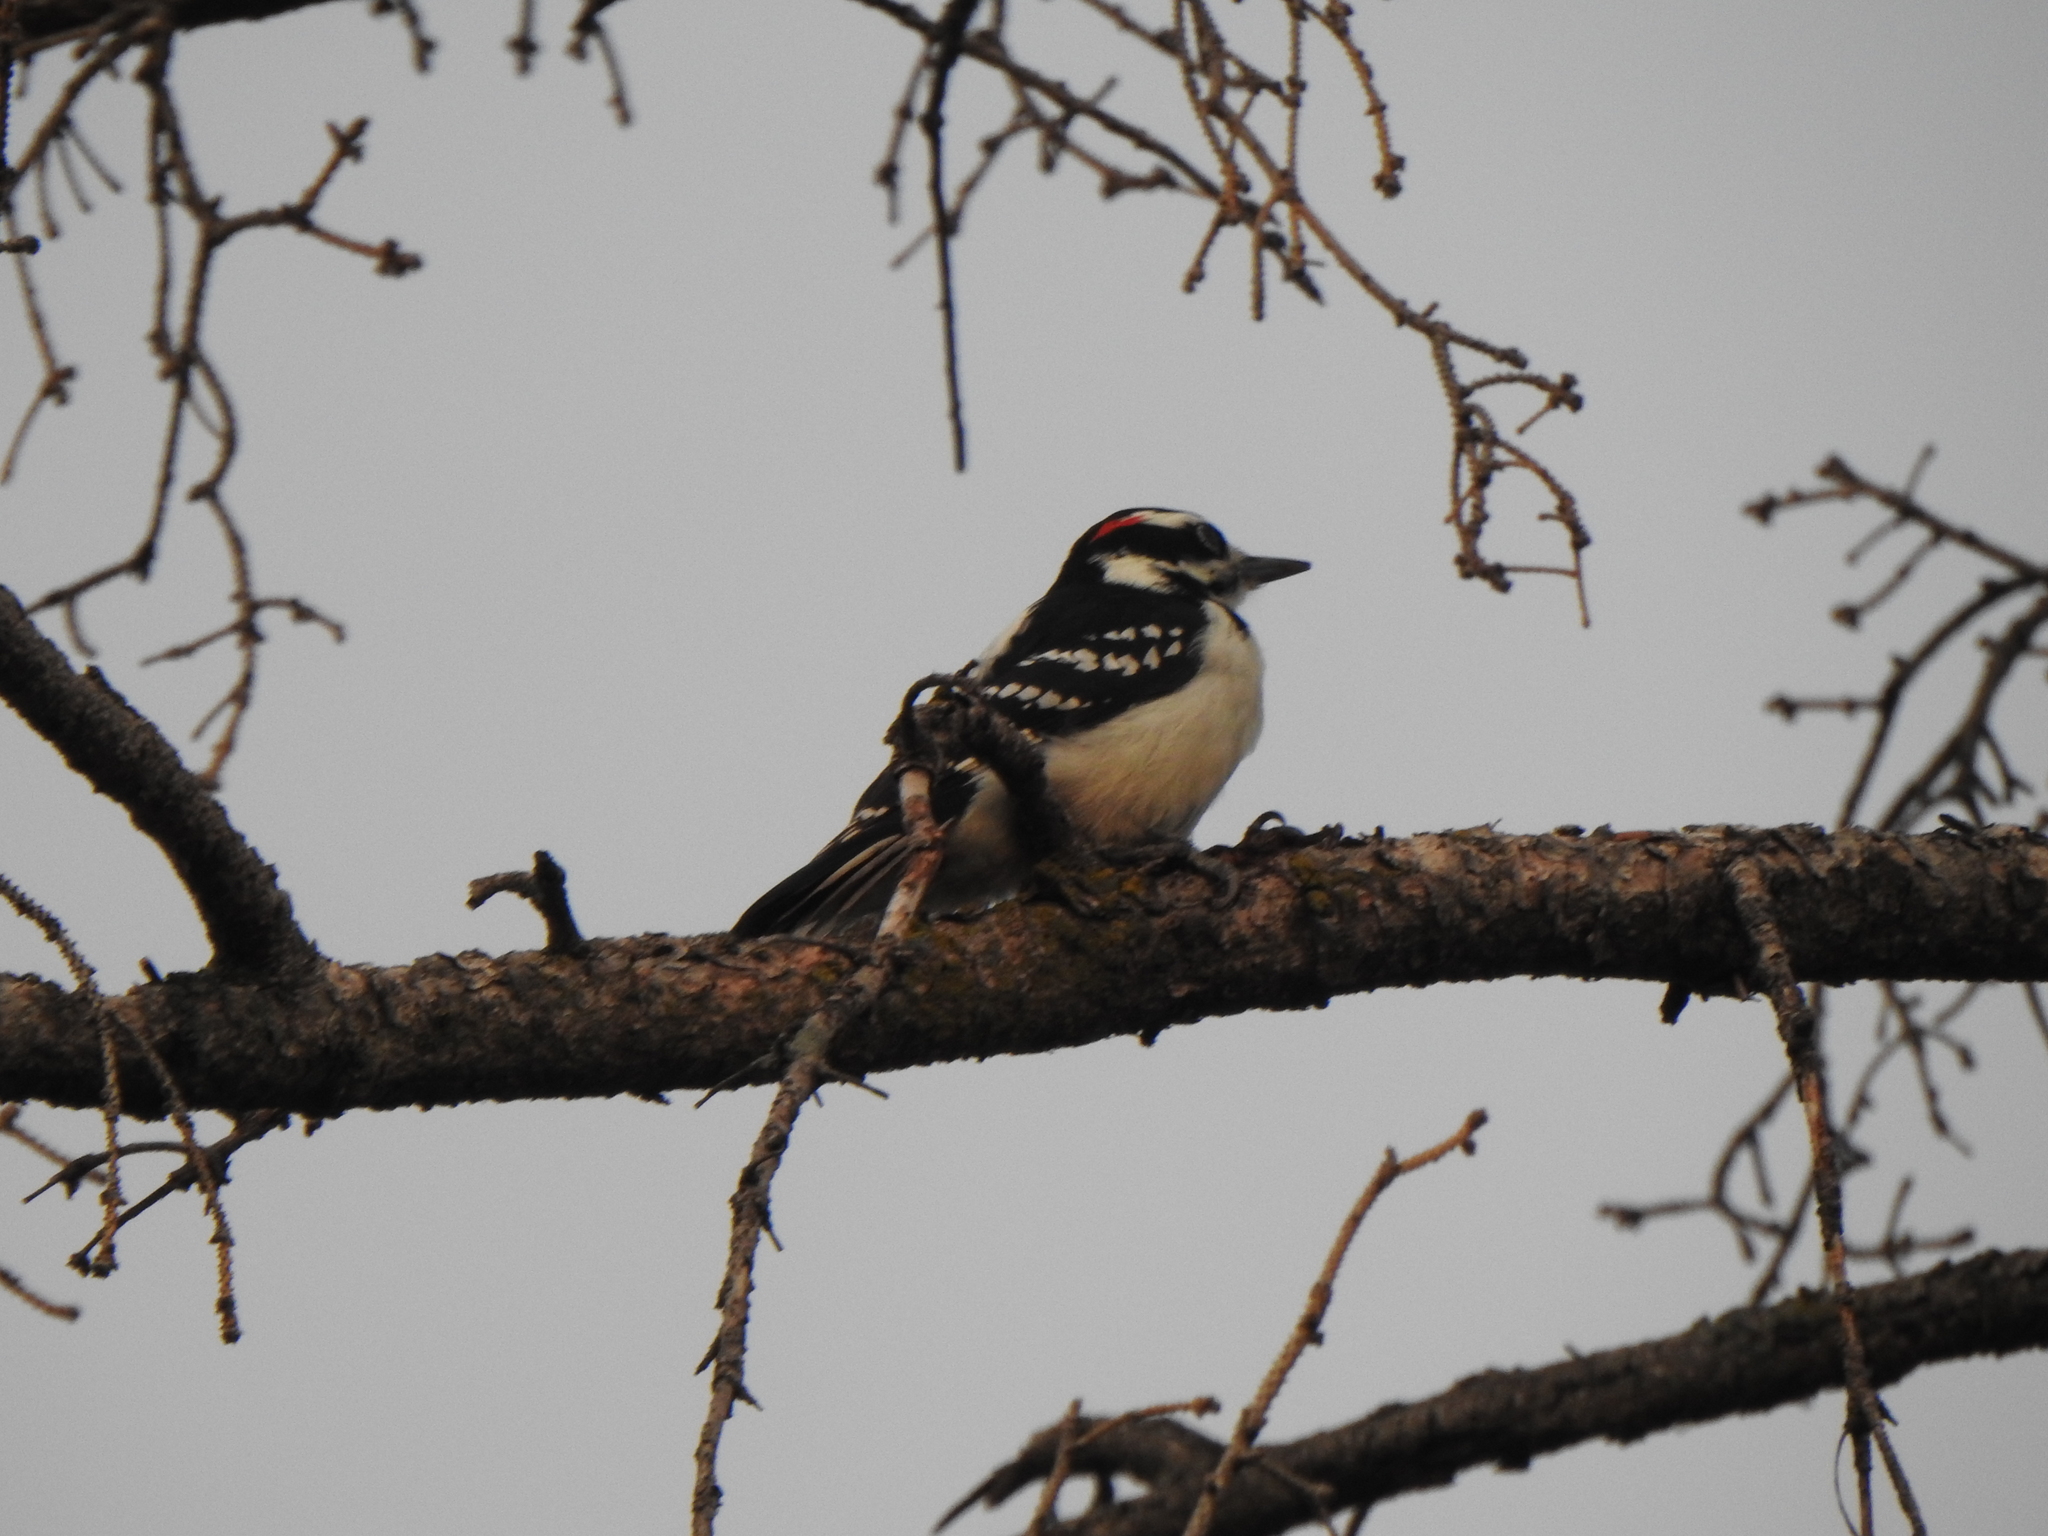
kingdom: Animalia
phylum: Chordata
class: Aves
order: Piciformes
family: Picidae
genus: Leuconotopicus
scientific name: Leuconotopicus villosus
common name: Hairy woodpecker
